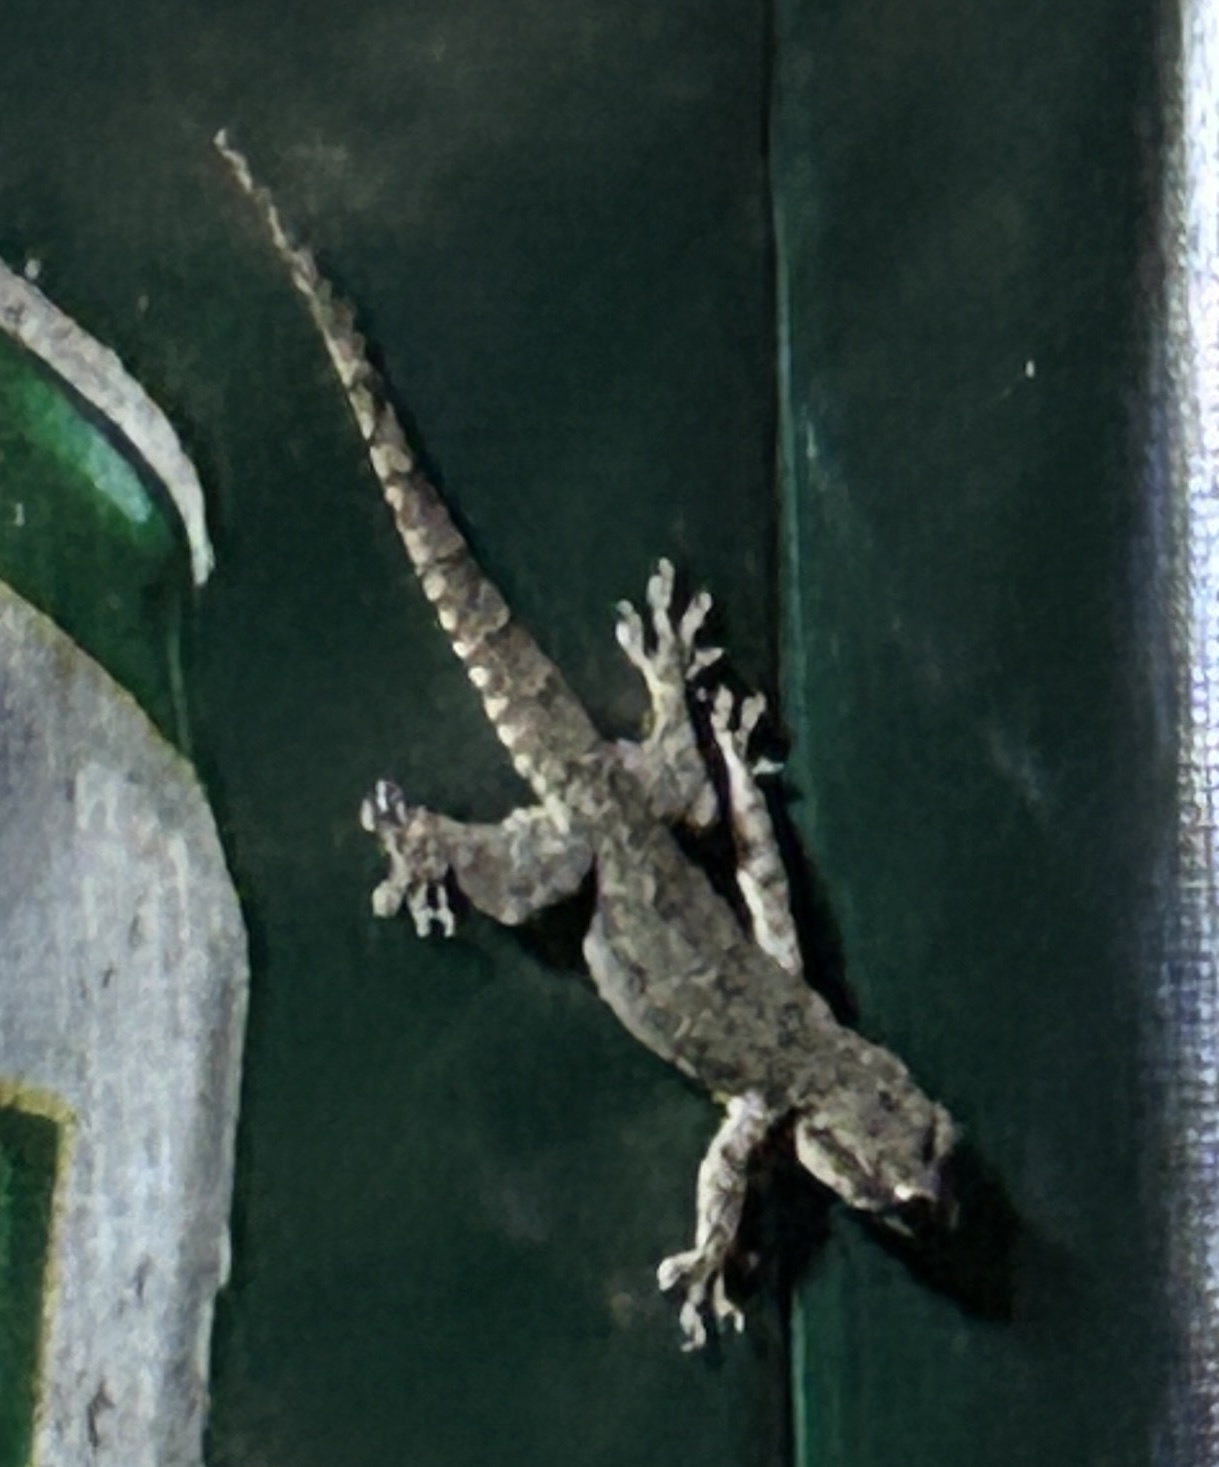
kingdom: Animalia
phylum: Chordata
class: Squamata
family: Gekkonidae
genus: Hemidactylus
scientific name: Hemidactylus platyurus
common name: Flat-tailed house gecko
